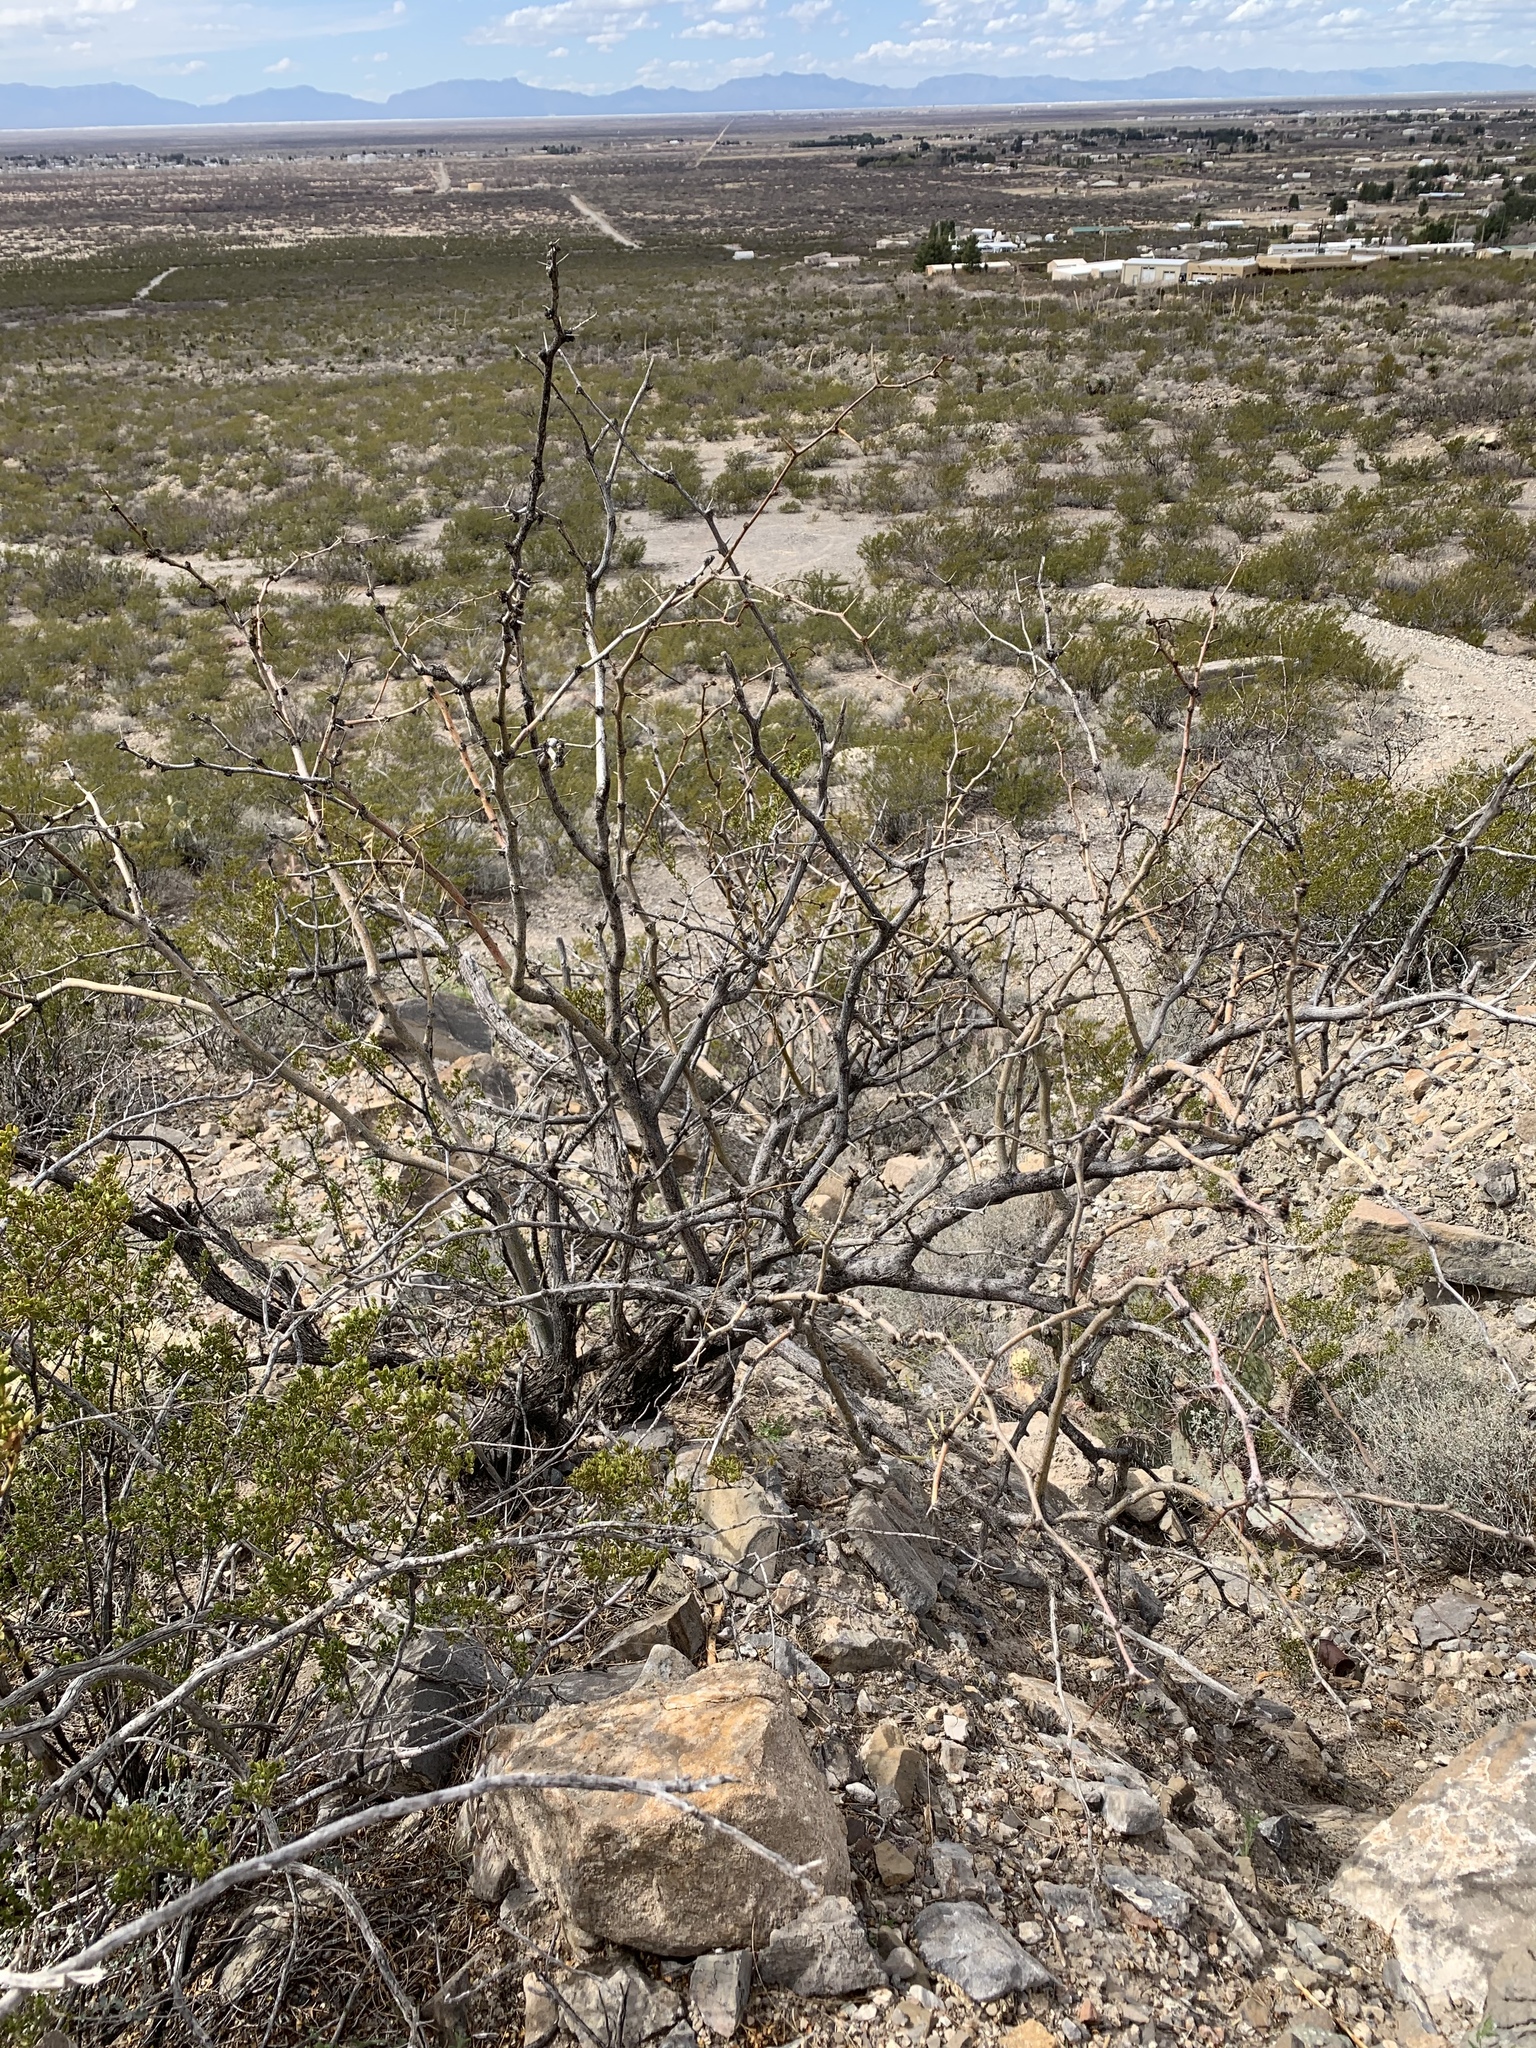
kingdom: Plantae
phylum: Tracheophyta
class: Magnoliopsida
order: Fabales
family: Fabaceae
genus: Prosopis
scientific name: Prosopis glandulosa
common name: Honey mesquite
